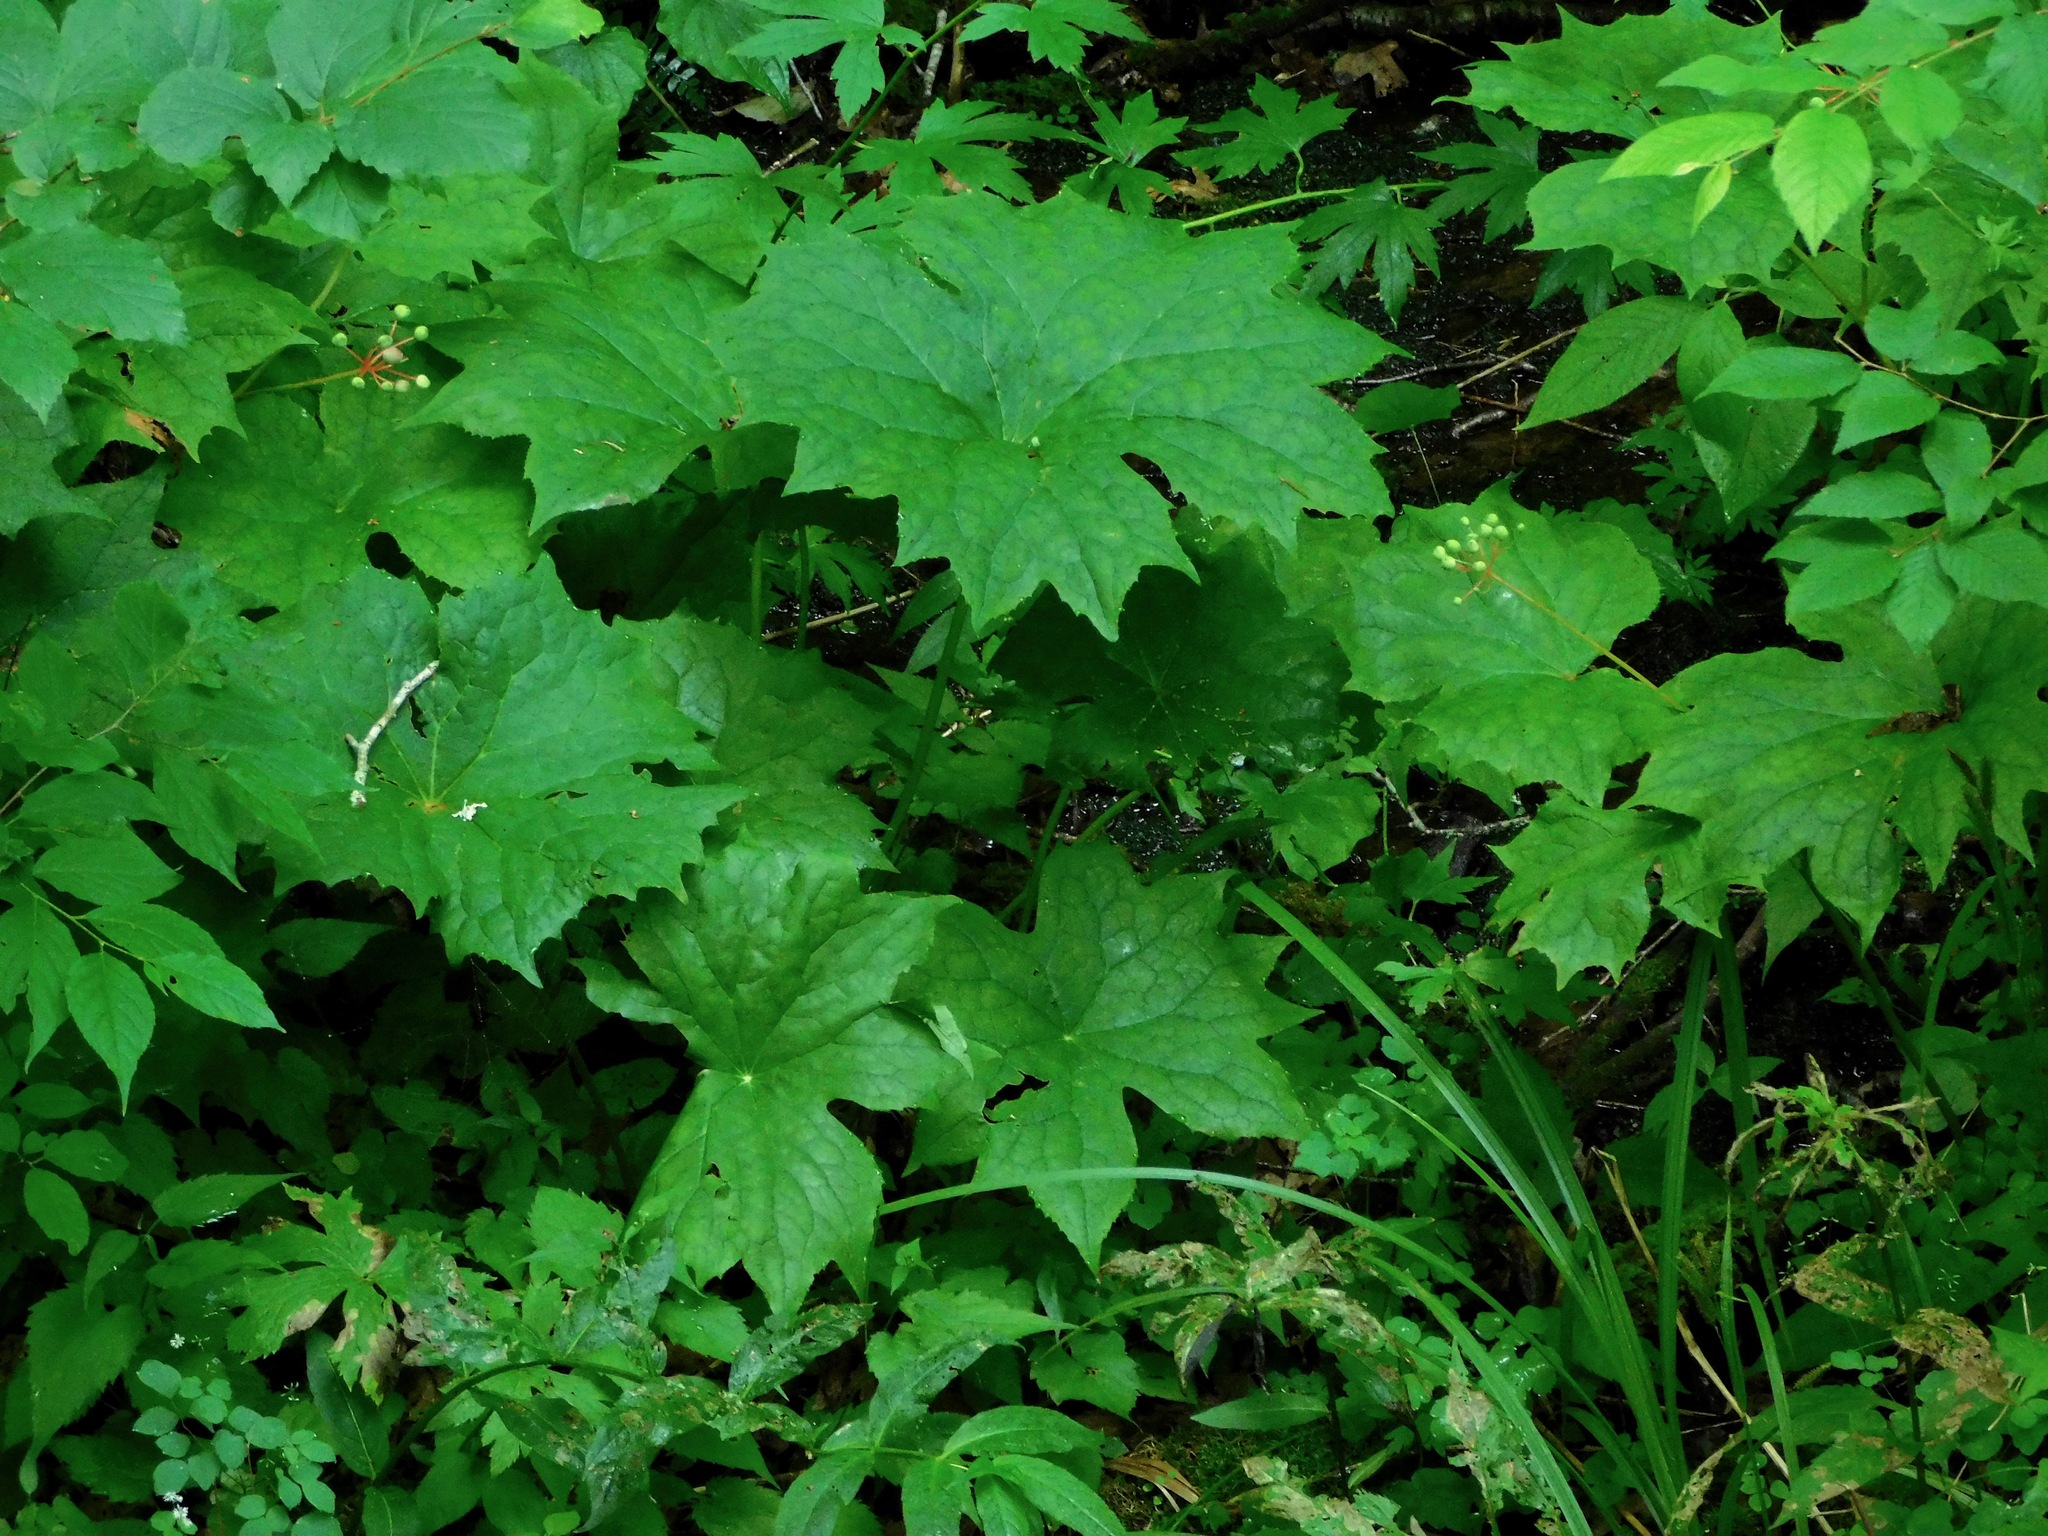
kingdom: Plantae
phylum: Tracheophyta
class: Magnoliopsida
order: Ranunculales
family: Berberidaceae
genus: Diphylleia
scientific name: Diphylleia cymosa
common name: Umbrella-leaf
